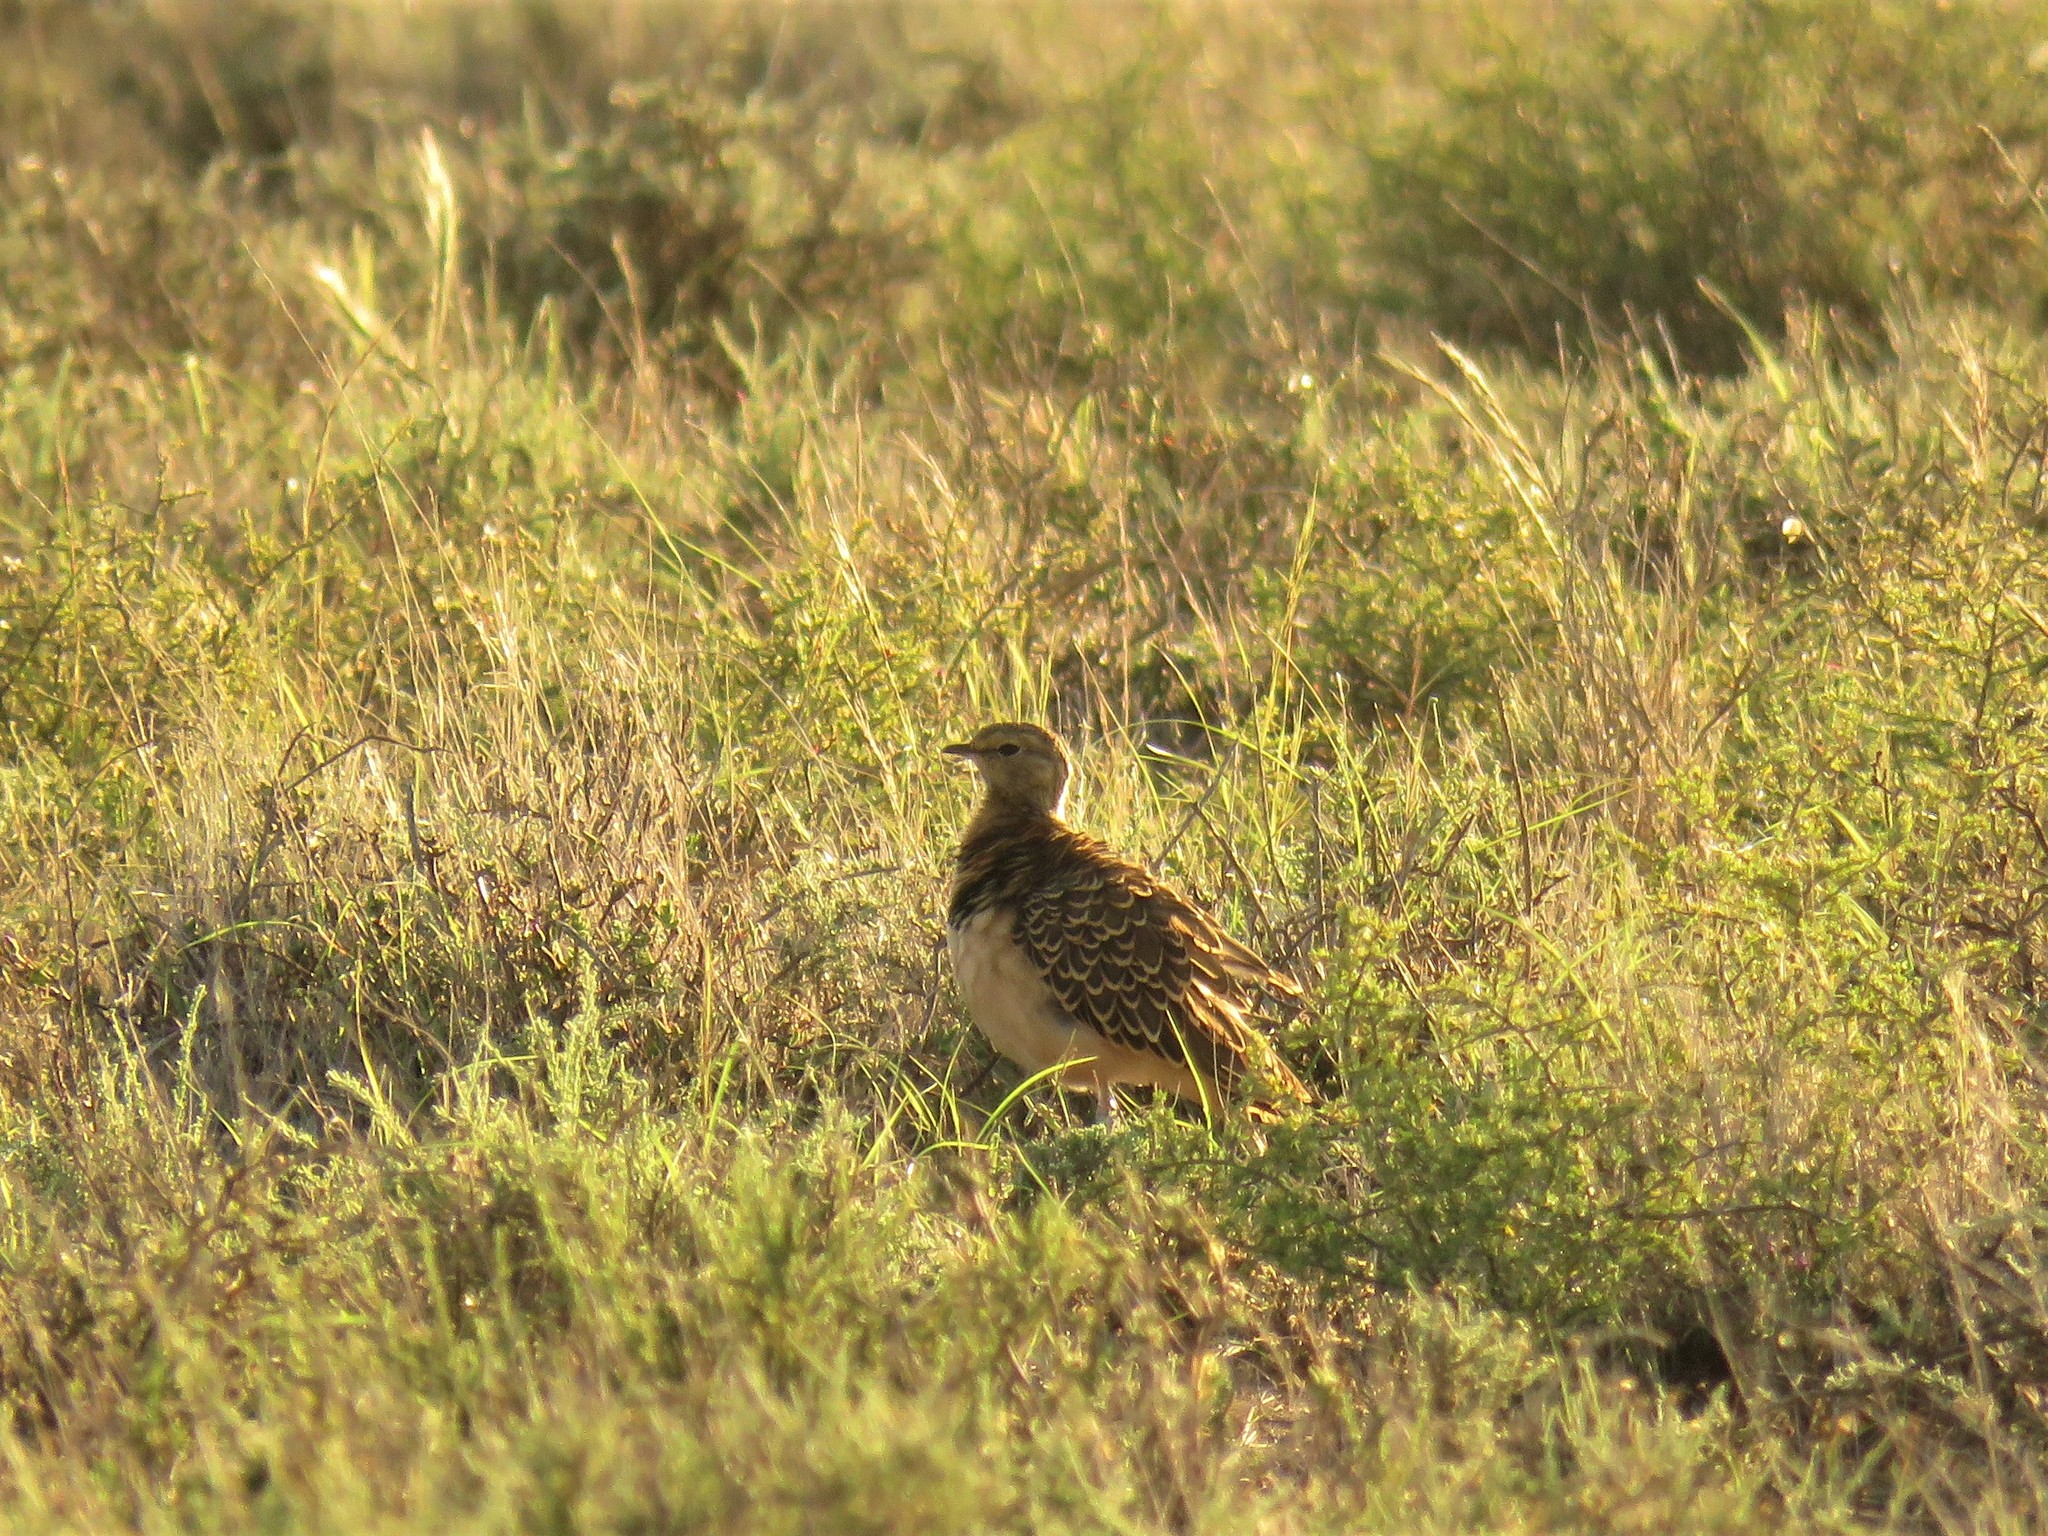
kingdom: Animalia
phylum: Chordata
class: Aves
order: Charadriiformes
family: Glareolidae
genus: Rhinoptilus
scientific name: Rhinoptilus africanus
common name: Double-banded courser
